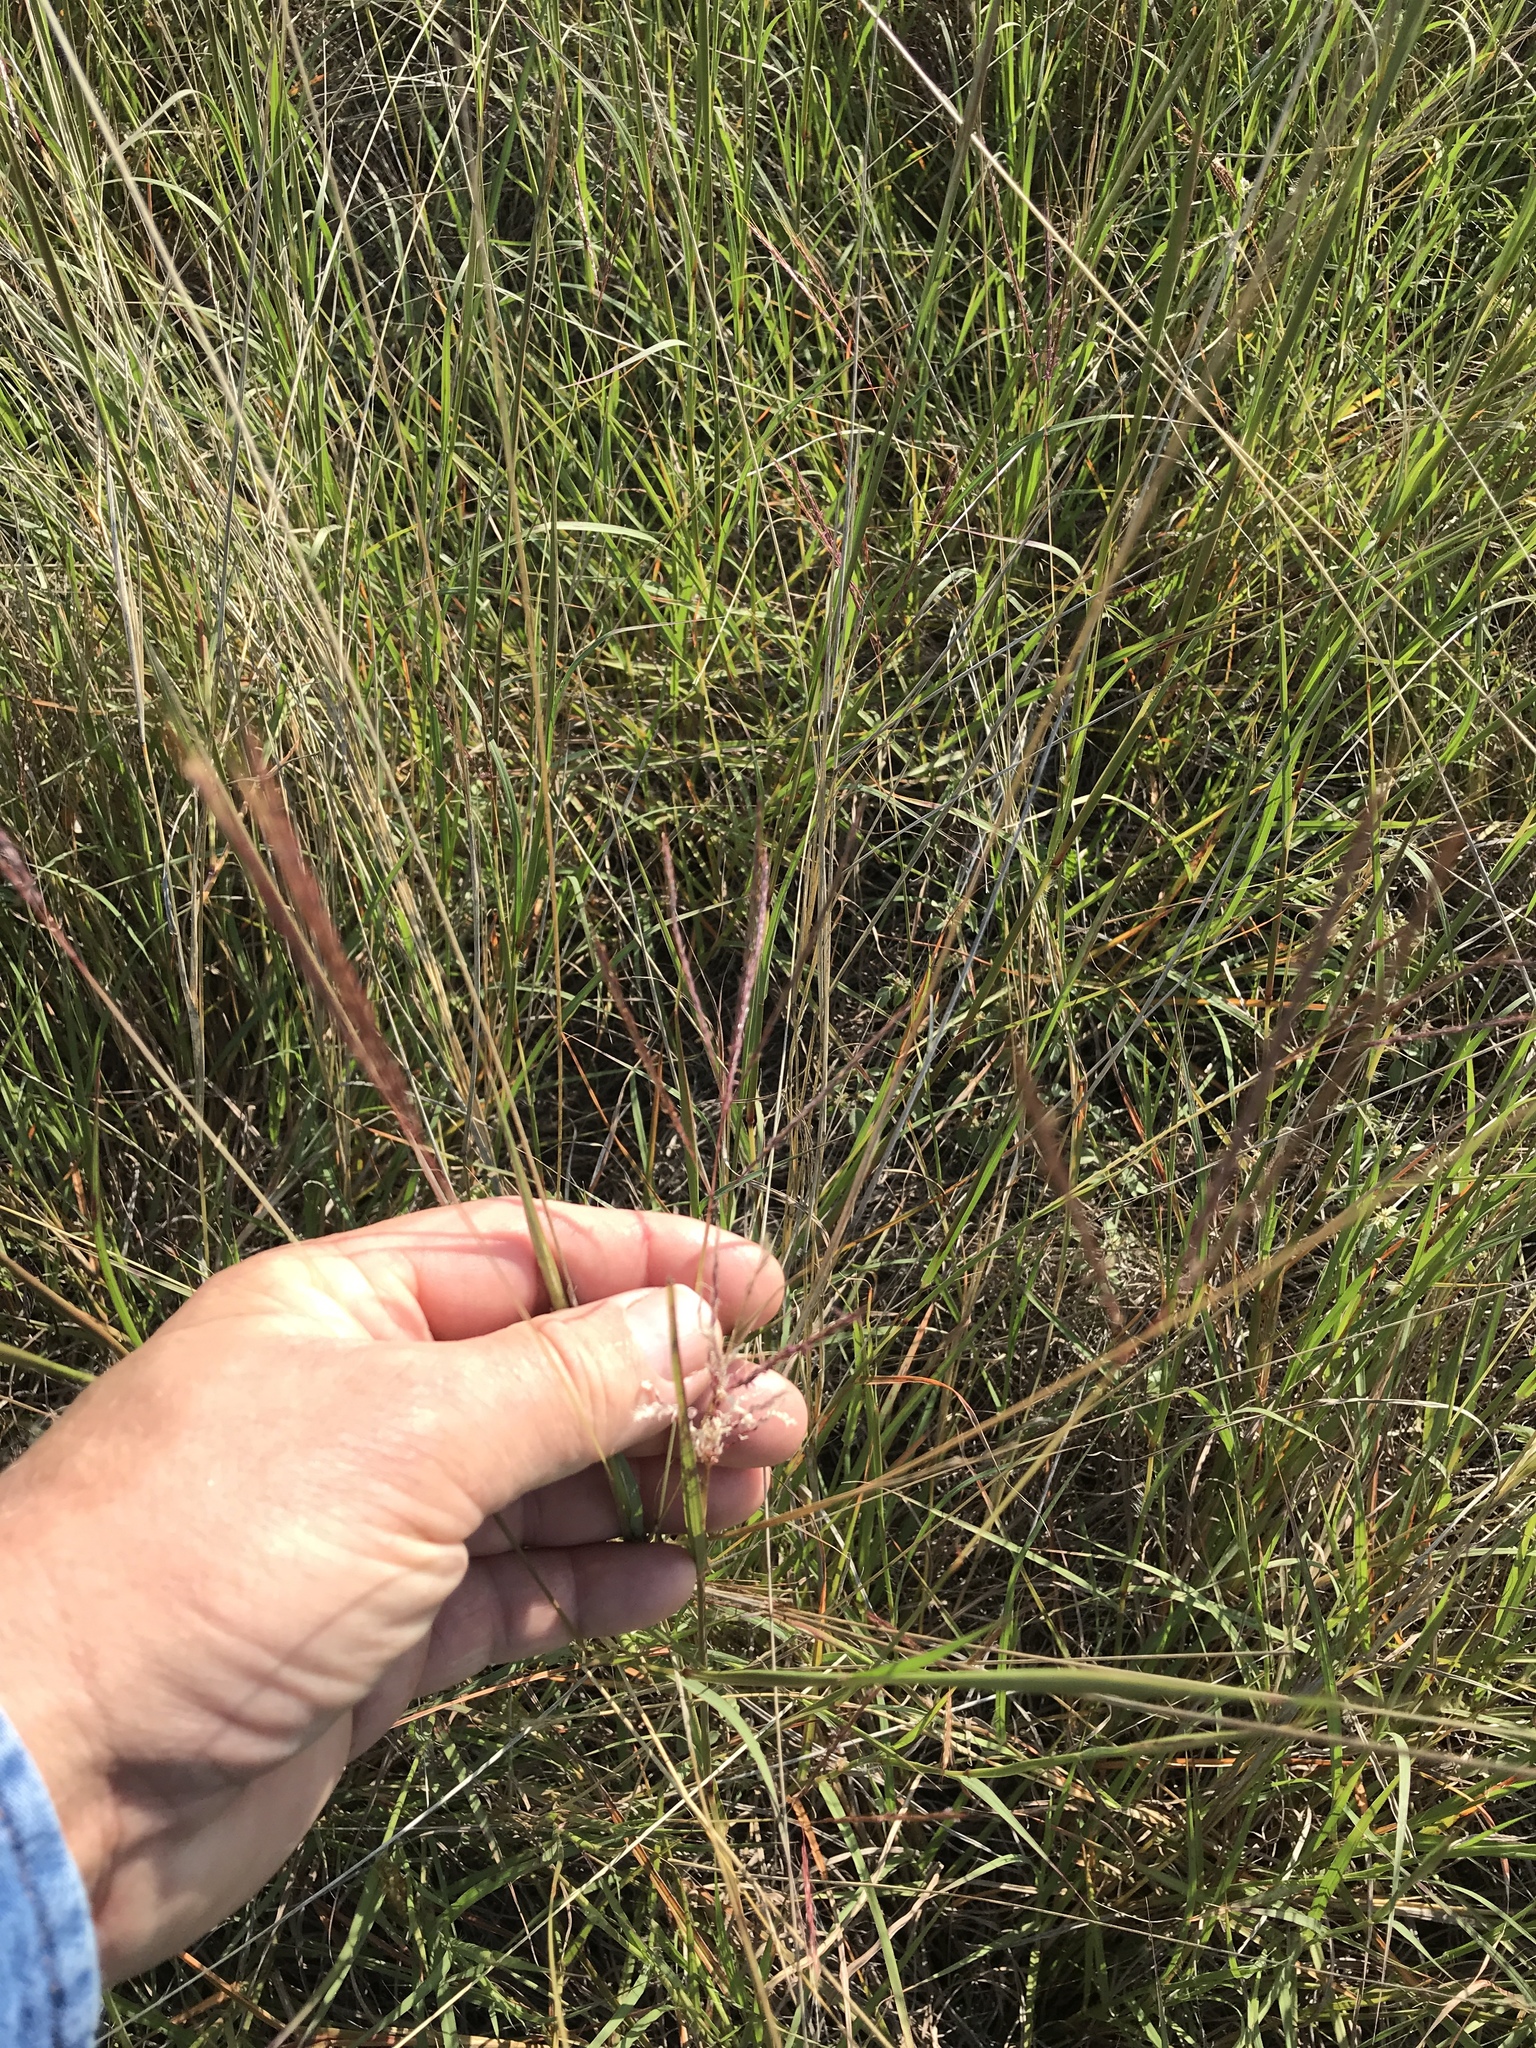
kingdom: Plantae
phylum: Tracheophyta
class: Liliopsida
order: Poales
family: Poaceae
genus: Bothriochloa
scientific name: Bothriochloa ischaemum
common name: Yellow bluestem
